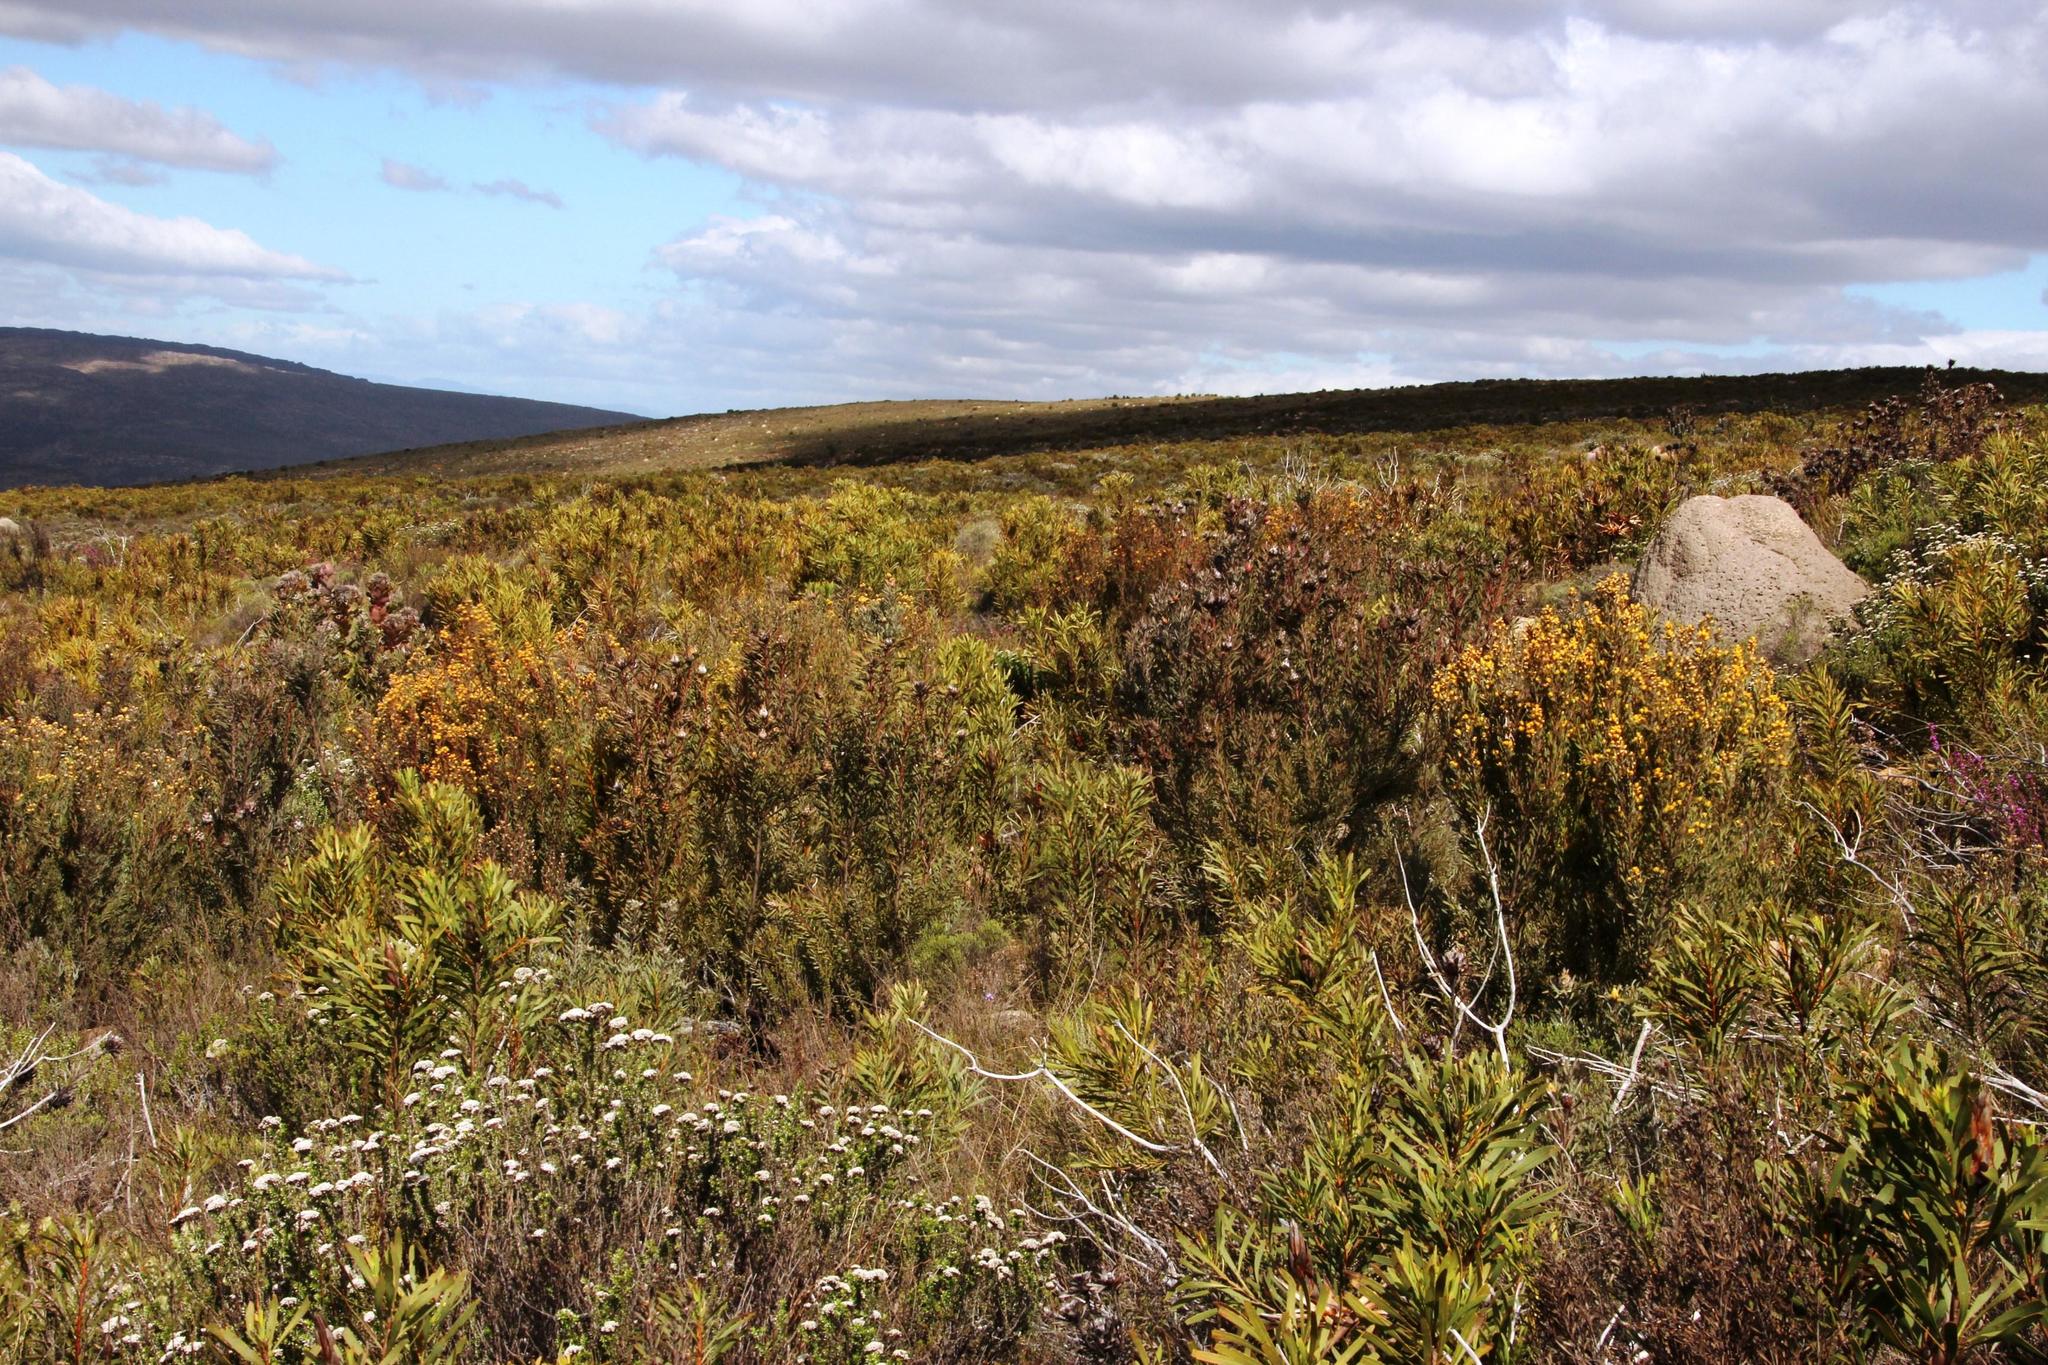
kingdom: Plantae
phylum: Tracheophyta
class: Magnoliopsida
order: Proteales
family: Proteaceae
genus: Leucadendron
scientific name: Leucadendron rubrum
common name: Spinning top
